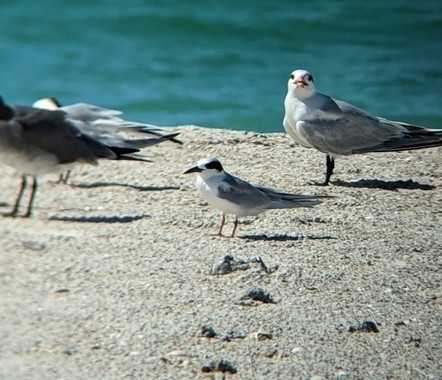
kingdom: Animalia
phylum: Chordata
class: Aves
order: Charadriiformes
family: Laridae
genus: Sterna
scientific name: Sterna forsteri
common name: Forster's tern
